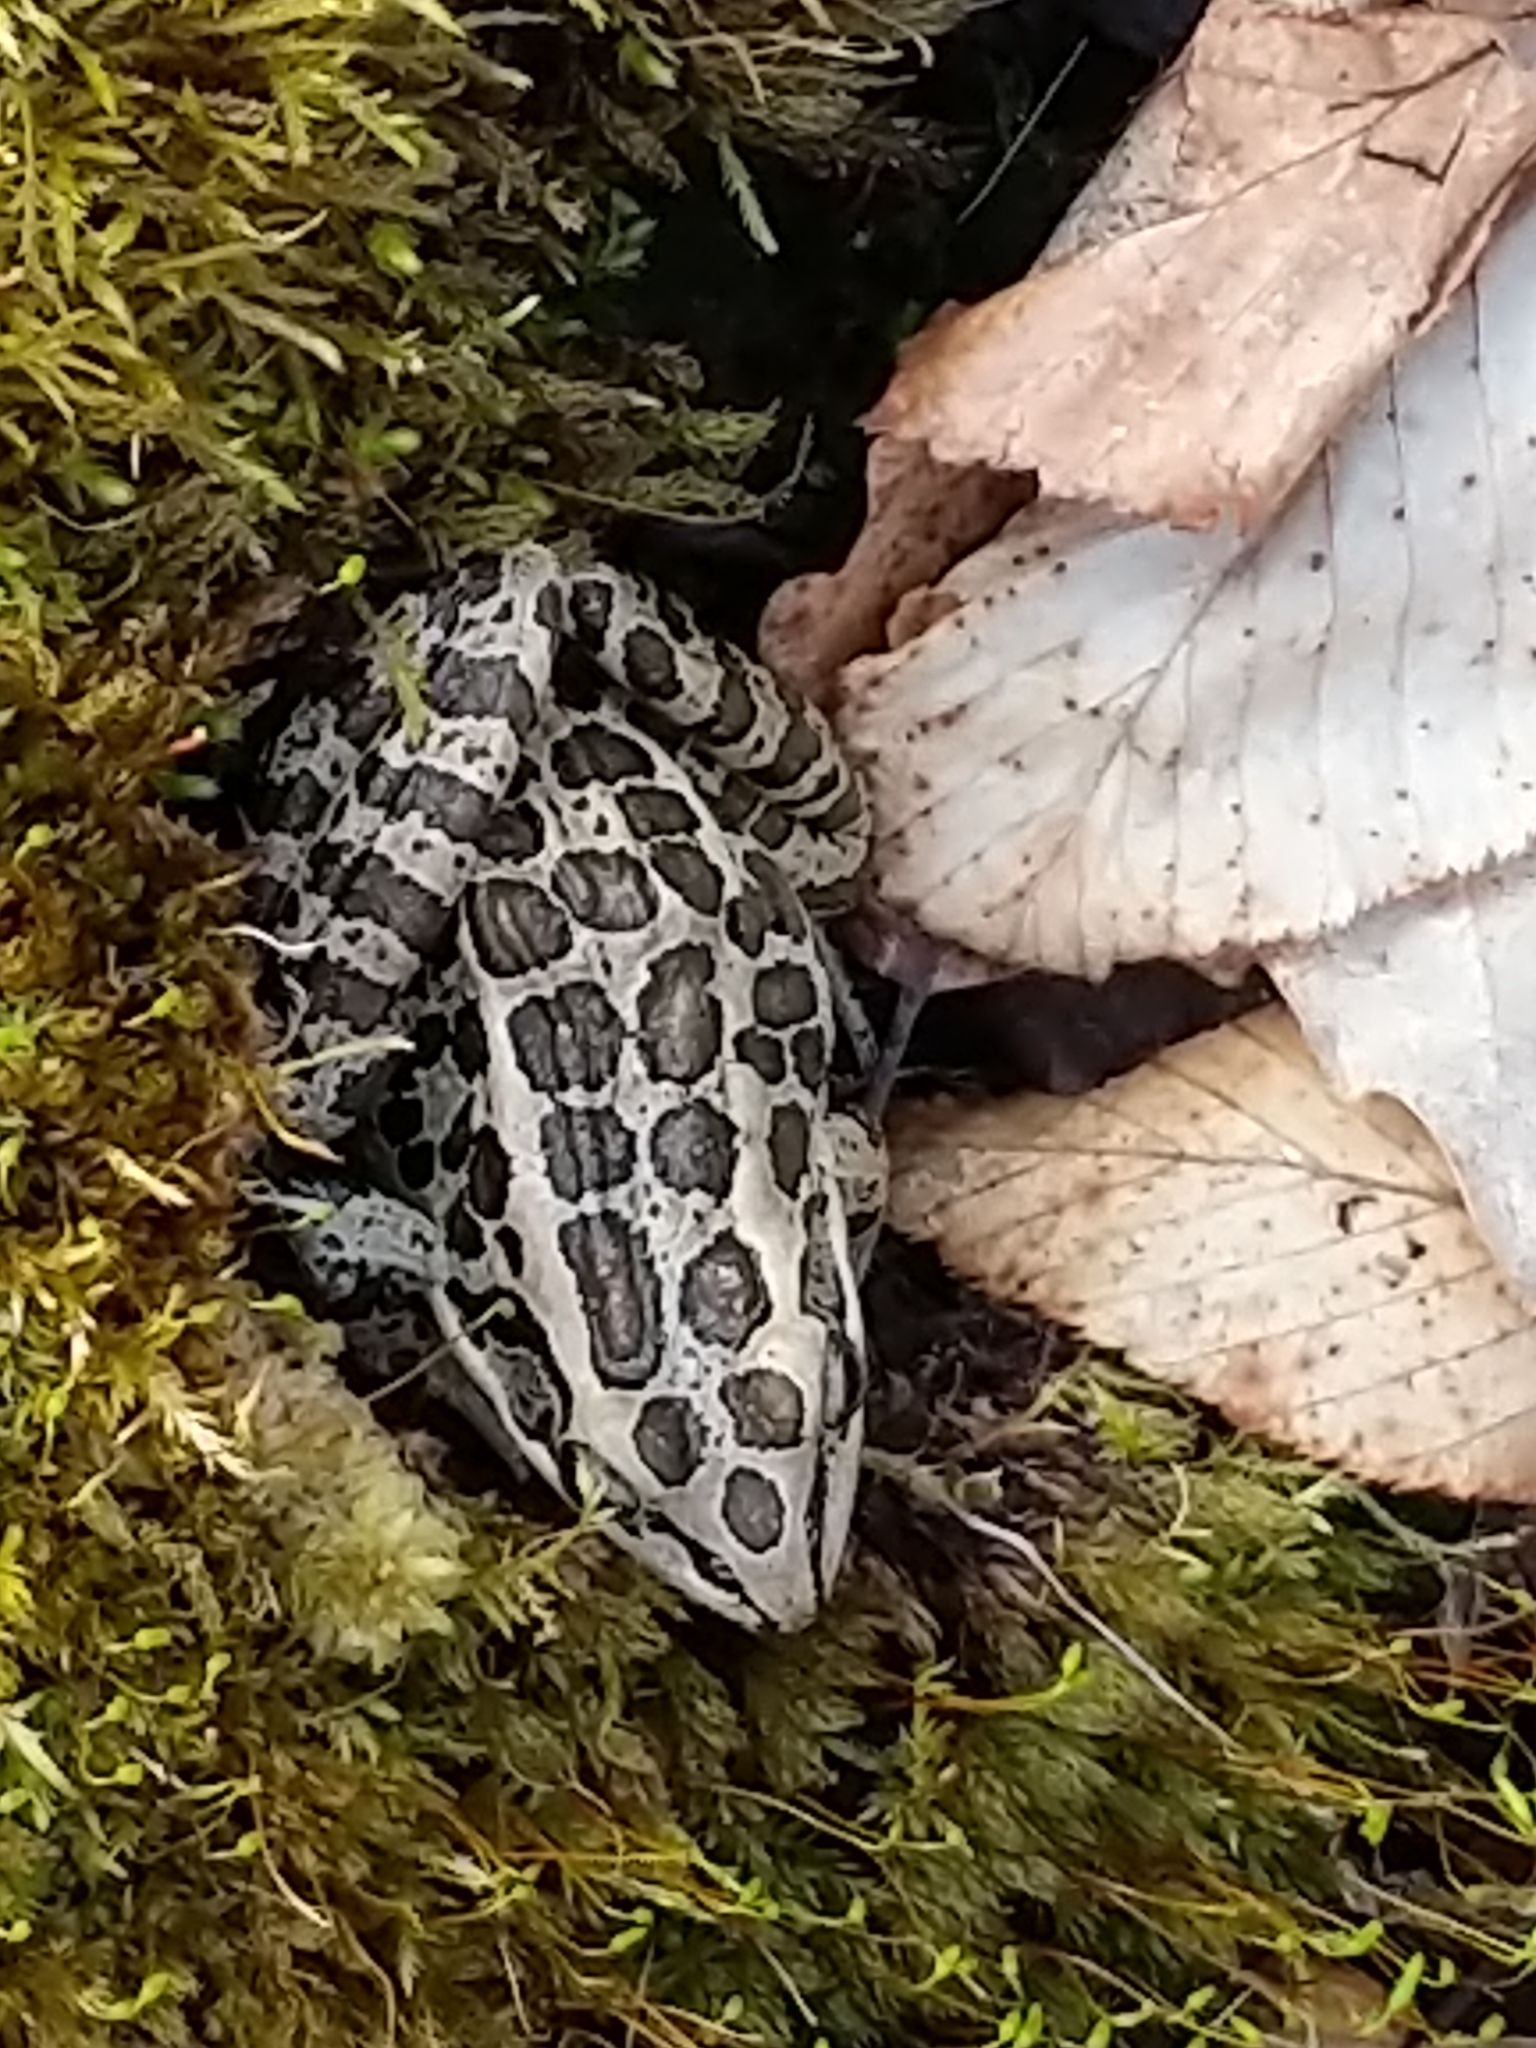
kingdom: Animalia
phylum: Chordata
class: Amphibia
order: Anura
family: Ranidae
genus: Lithobates
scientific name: Lithobates palustris
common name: Pickerel frog
